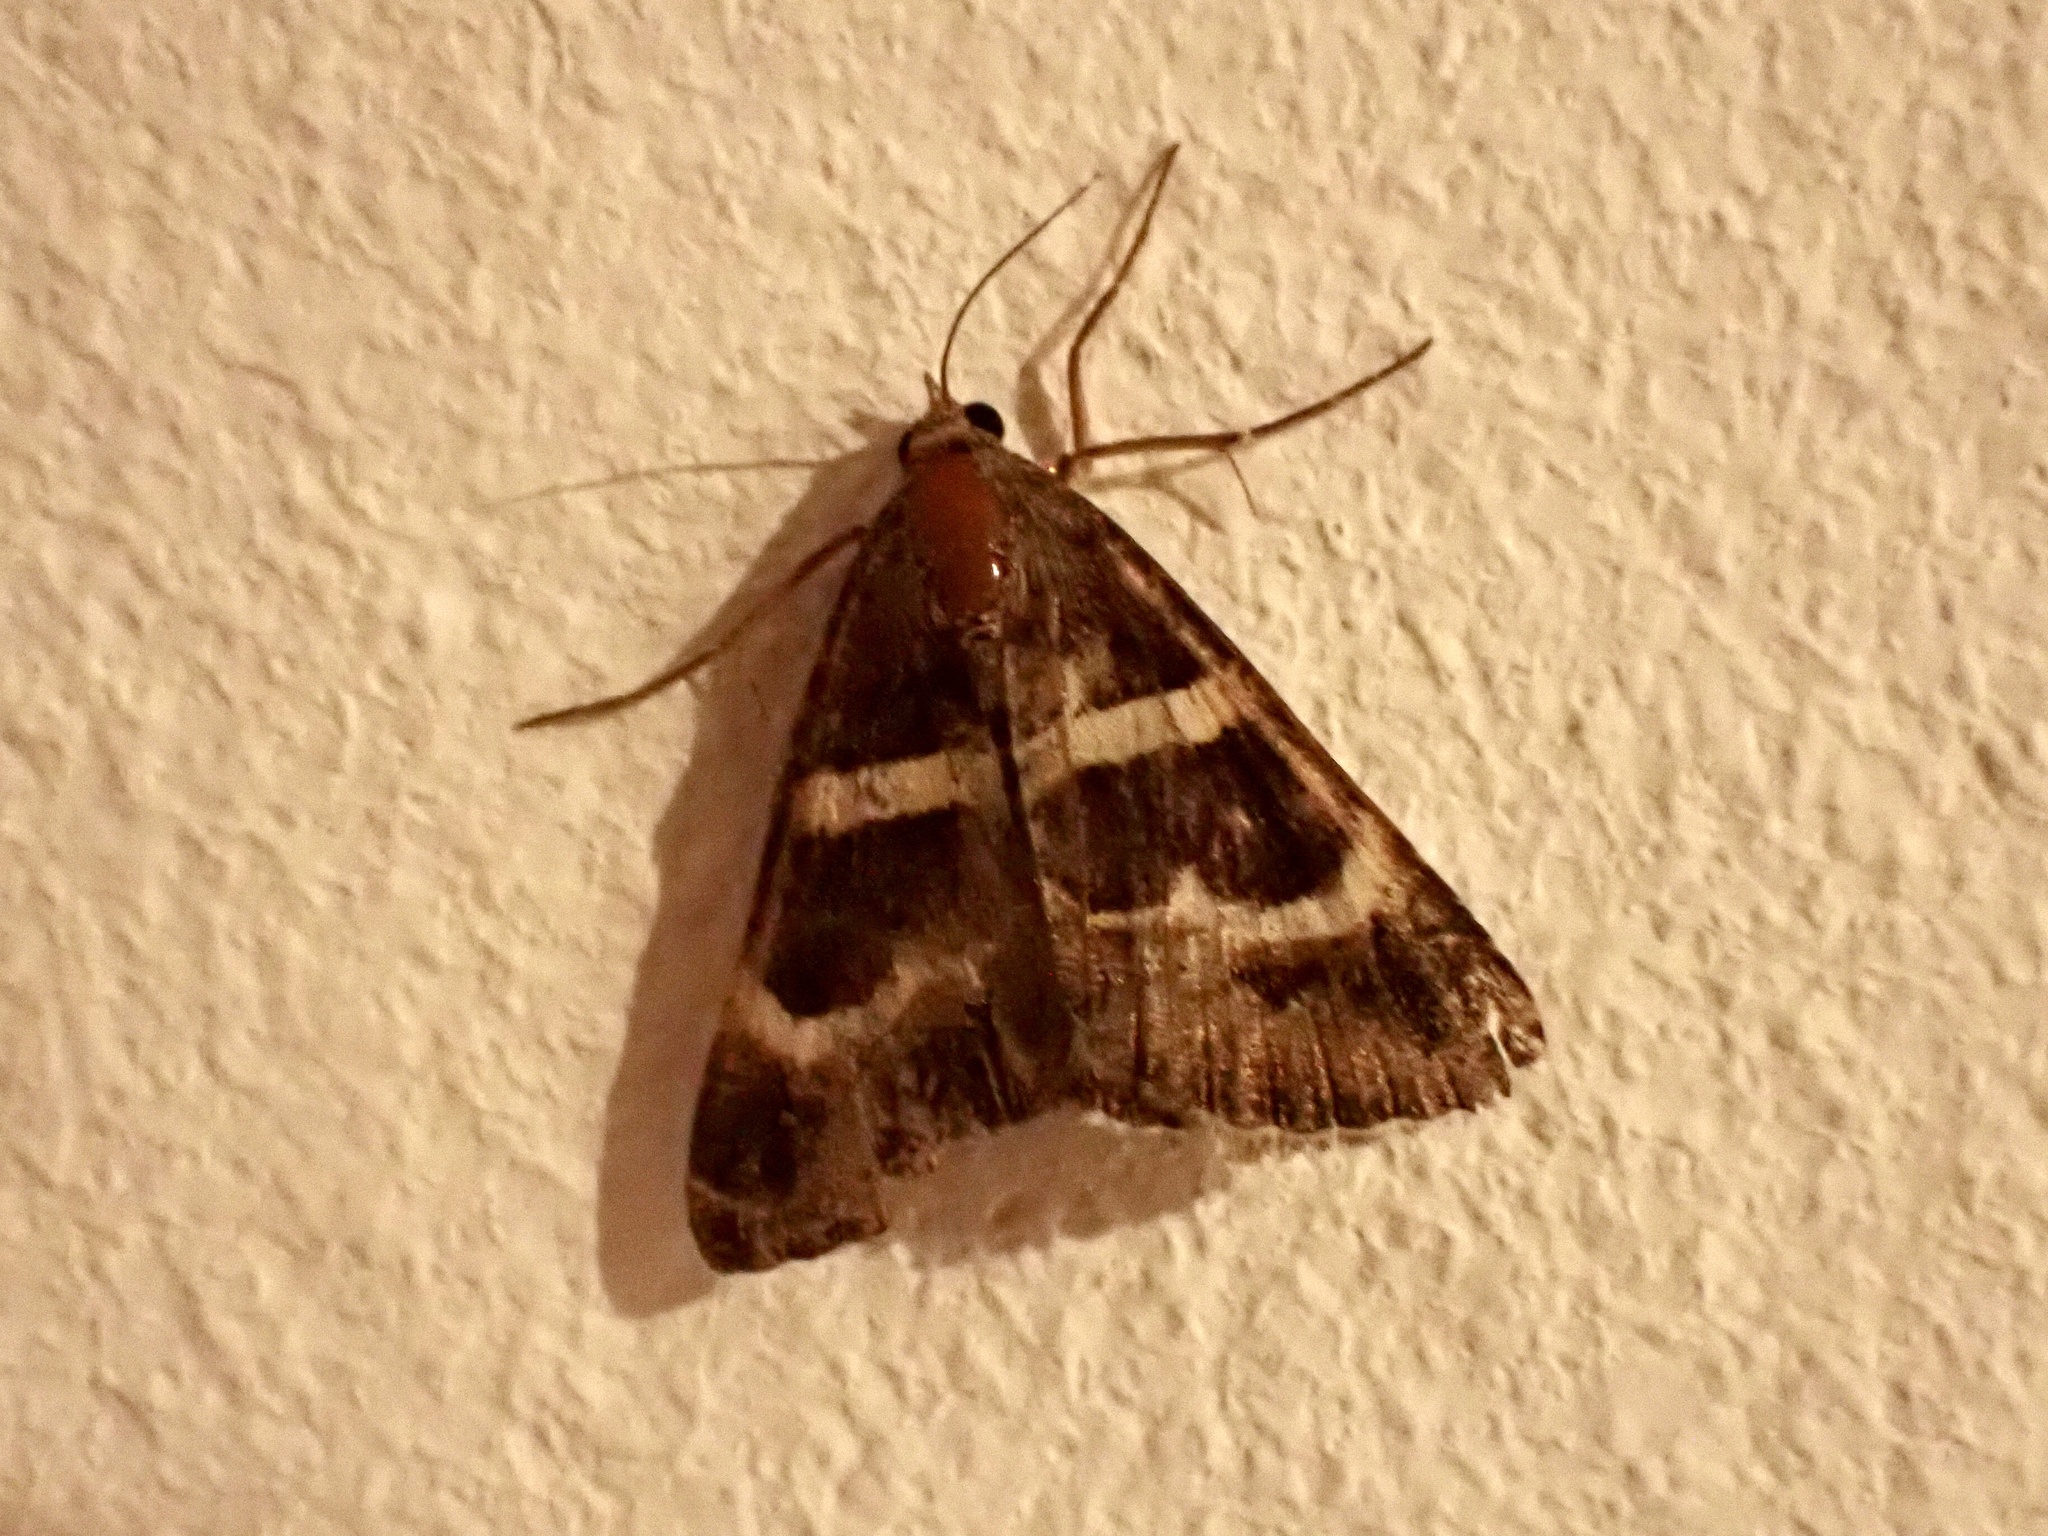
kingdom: Animalia
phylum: Arthropoda
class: Insecta
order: Lepidoptera
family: Erebidae
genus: Grammodes
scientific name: Grammodes stolida
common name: Geometrician
